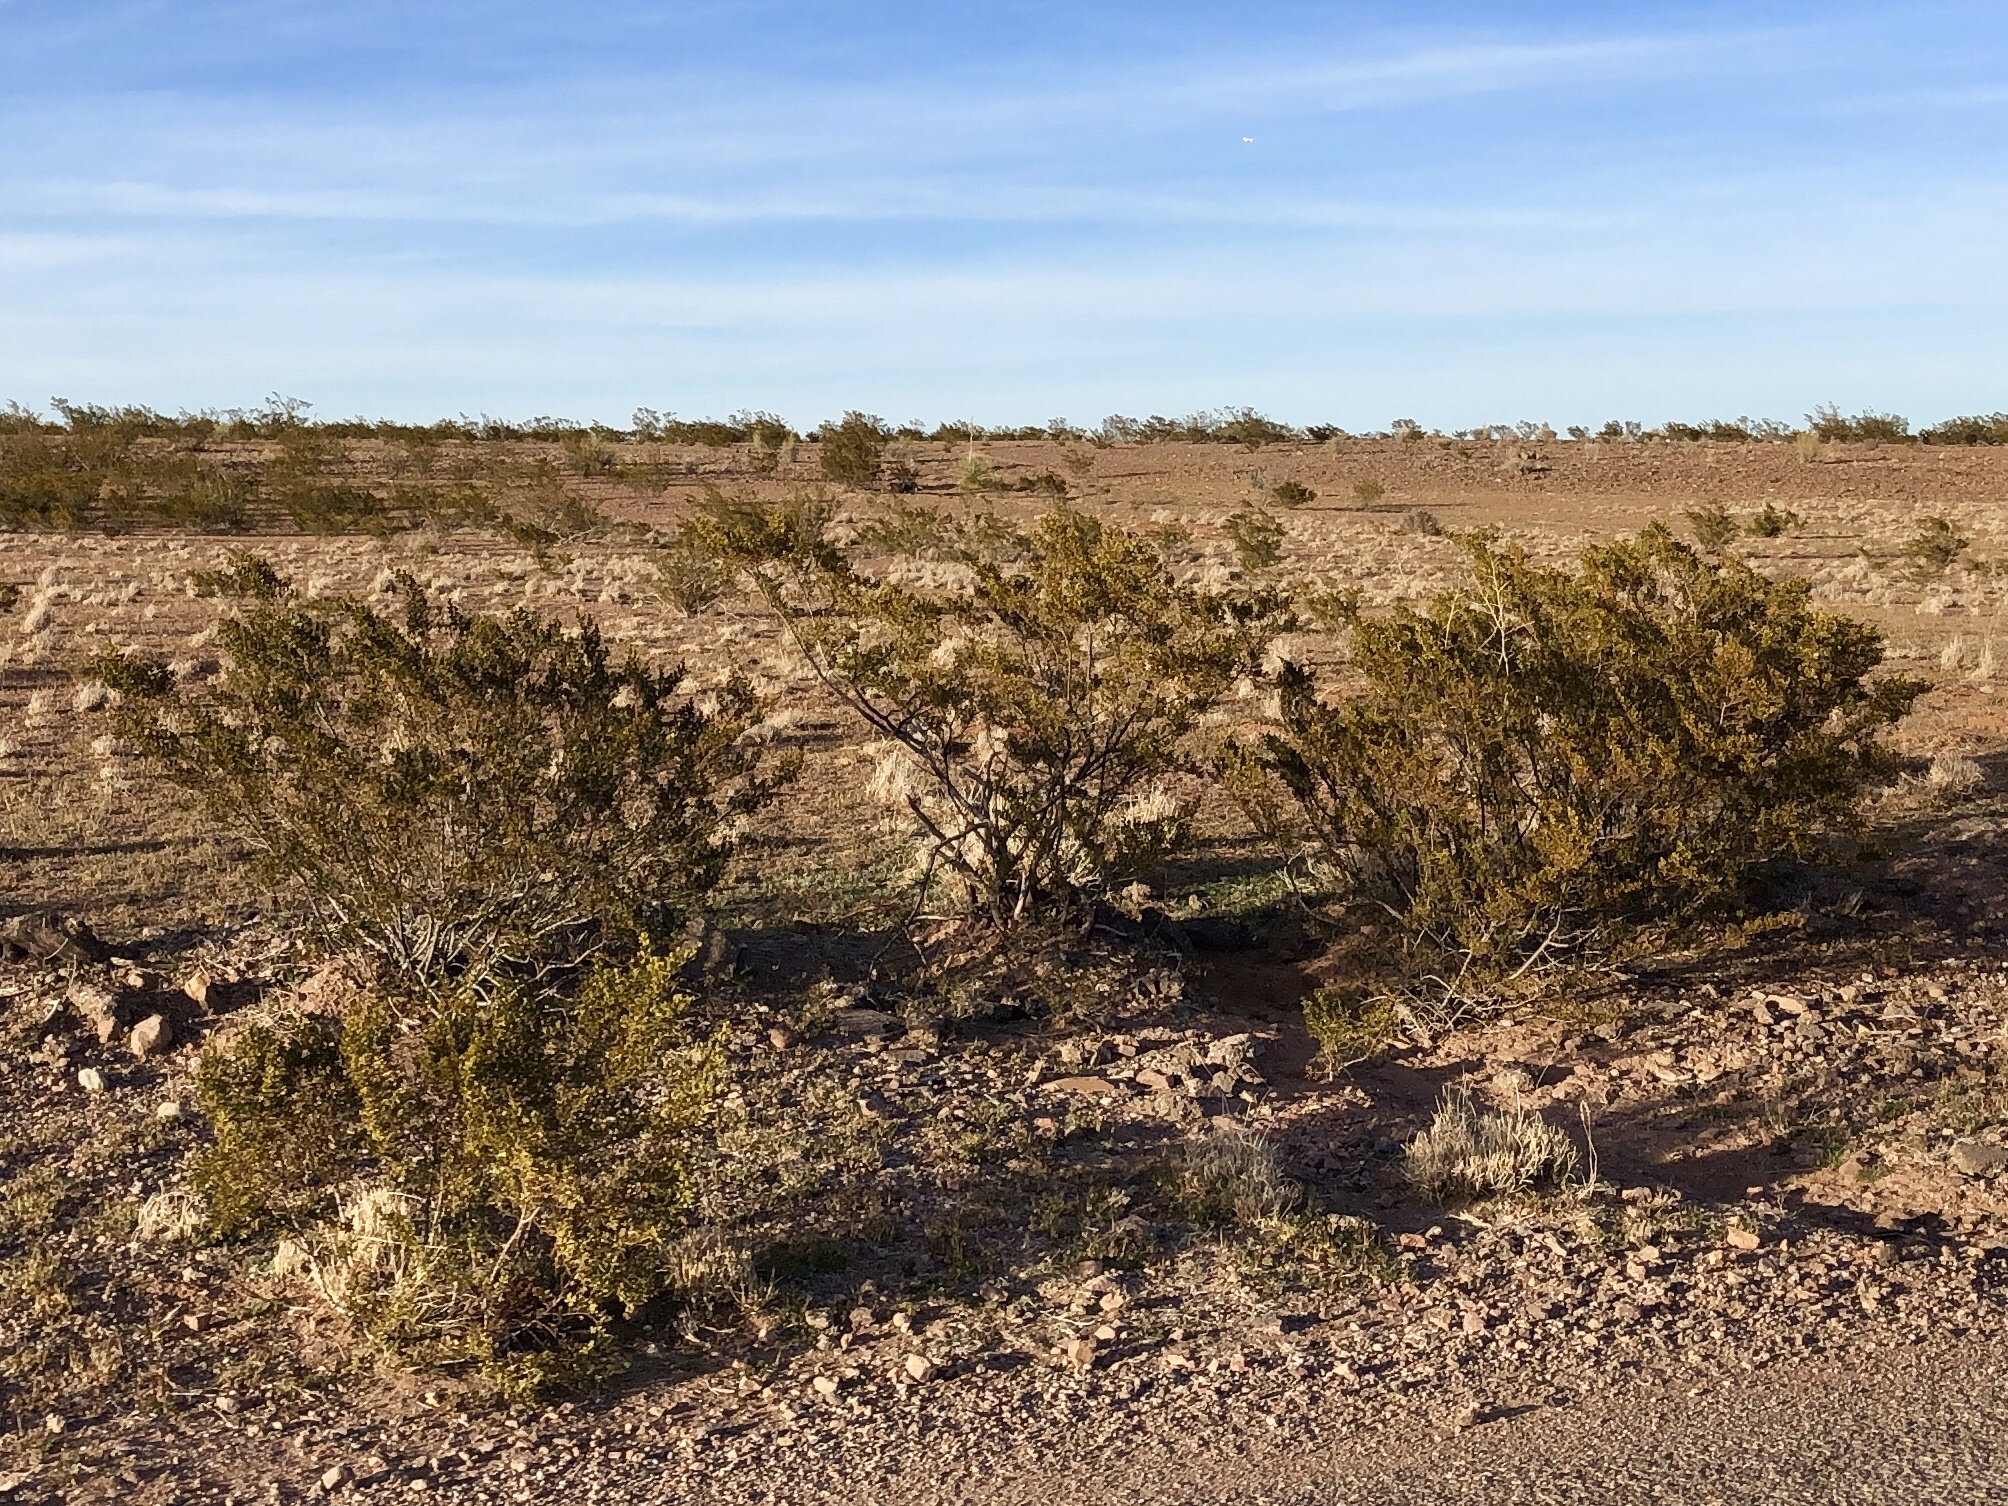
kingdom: Plantae
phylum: Tracheophyta
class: Magnoliopsida
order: Zygophyllales
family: Zygophyllaceae
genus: Larrea
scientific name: Larrea tridentata
